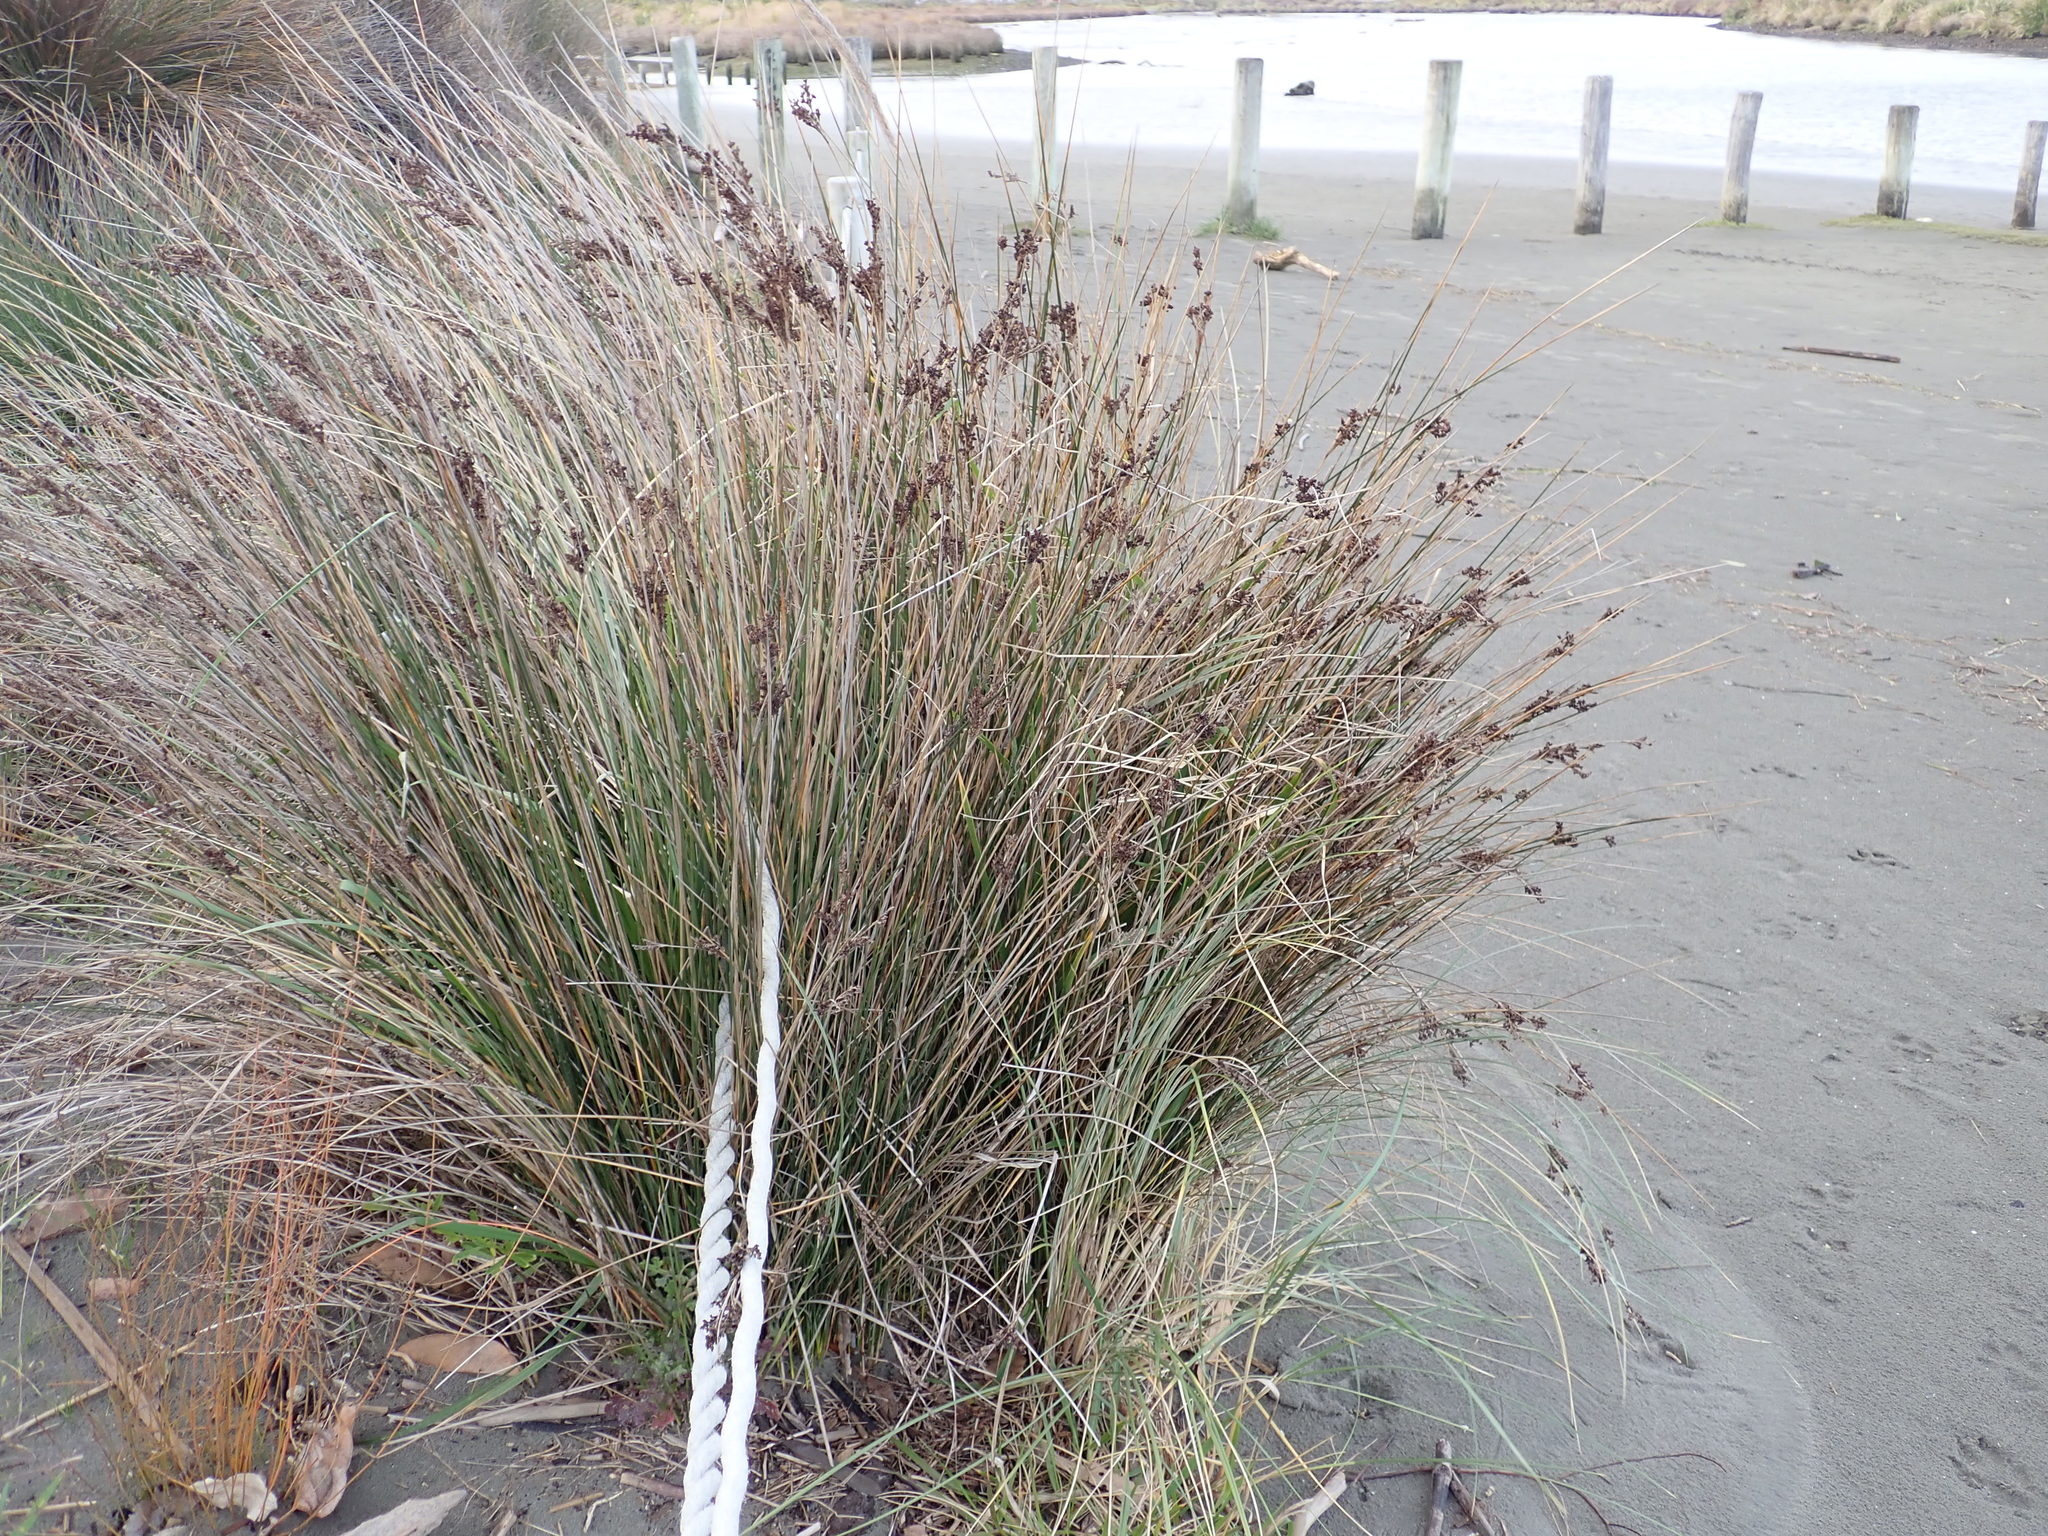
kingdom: Plantae
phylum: Tracheophyta
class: Liliopsida
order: Poales
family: Juncaceae
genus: Juncus
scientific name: Juncus kraussii
